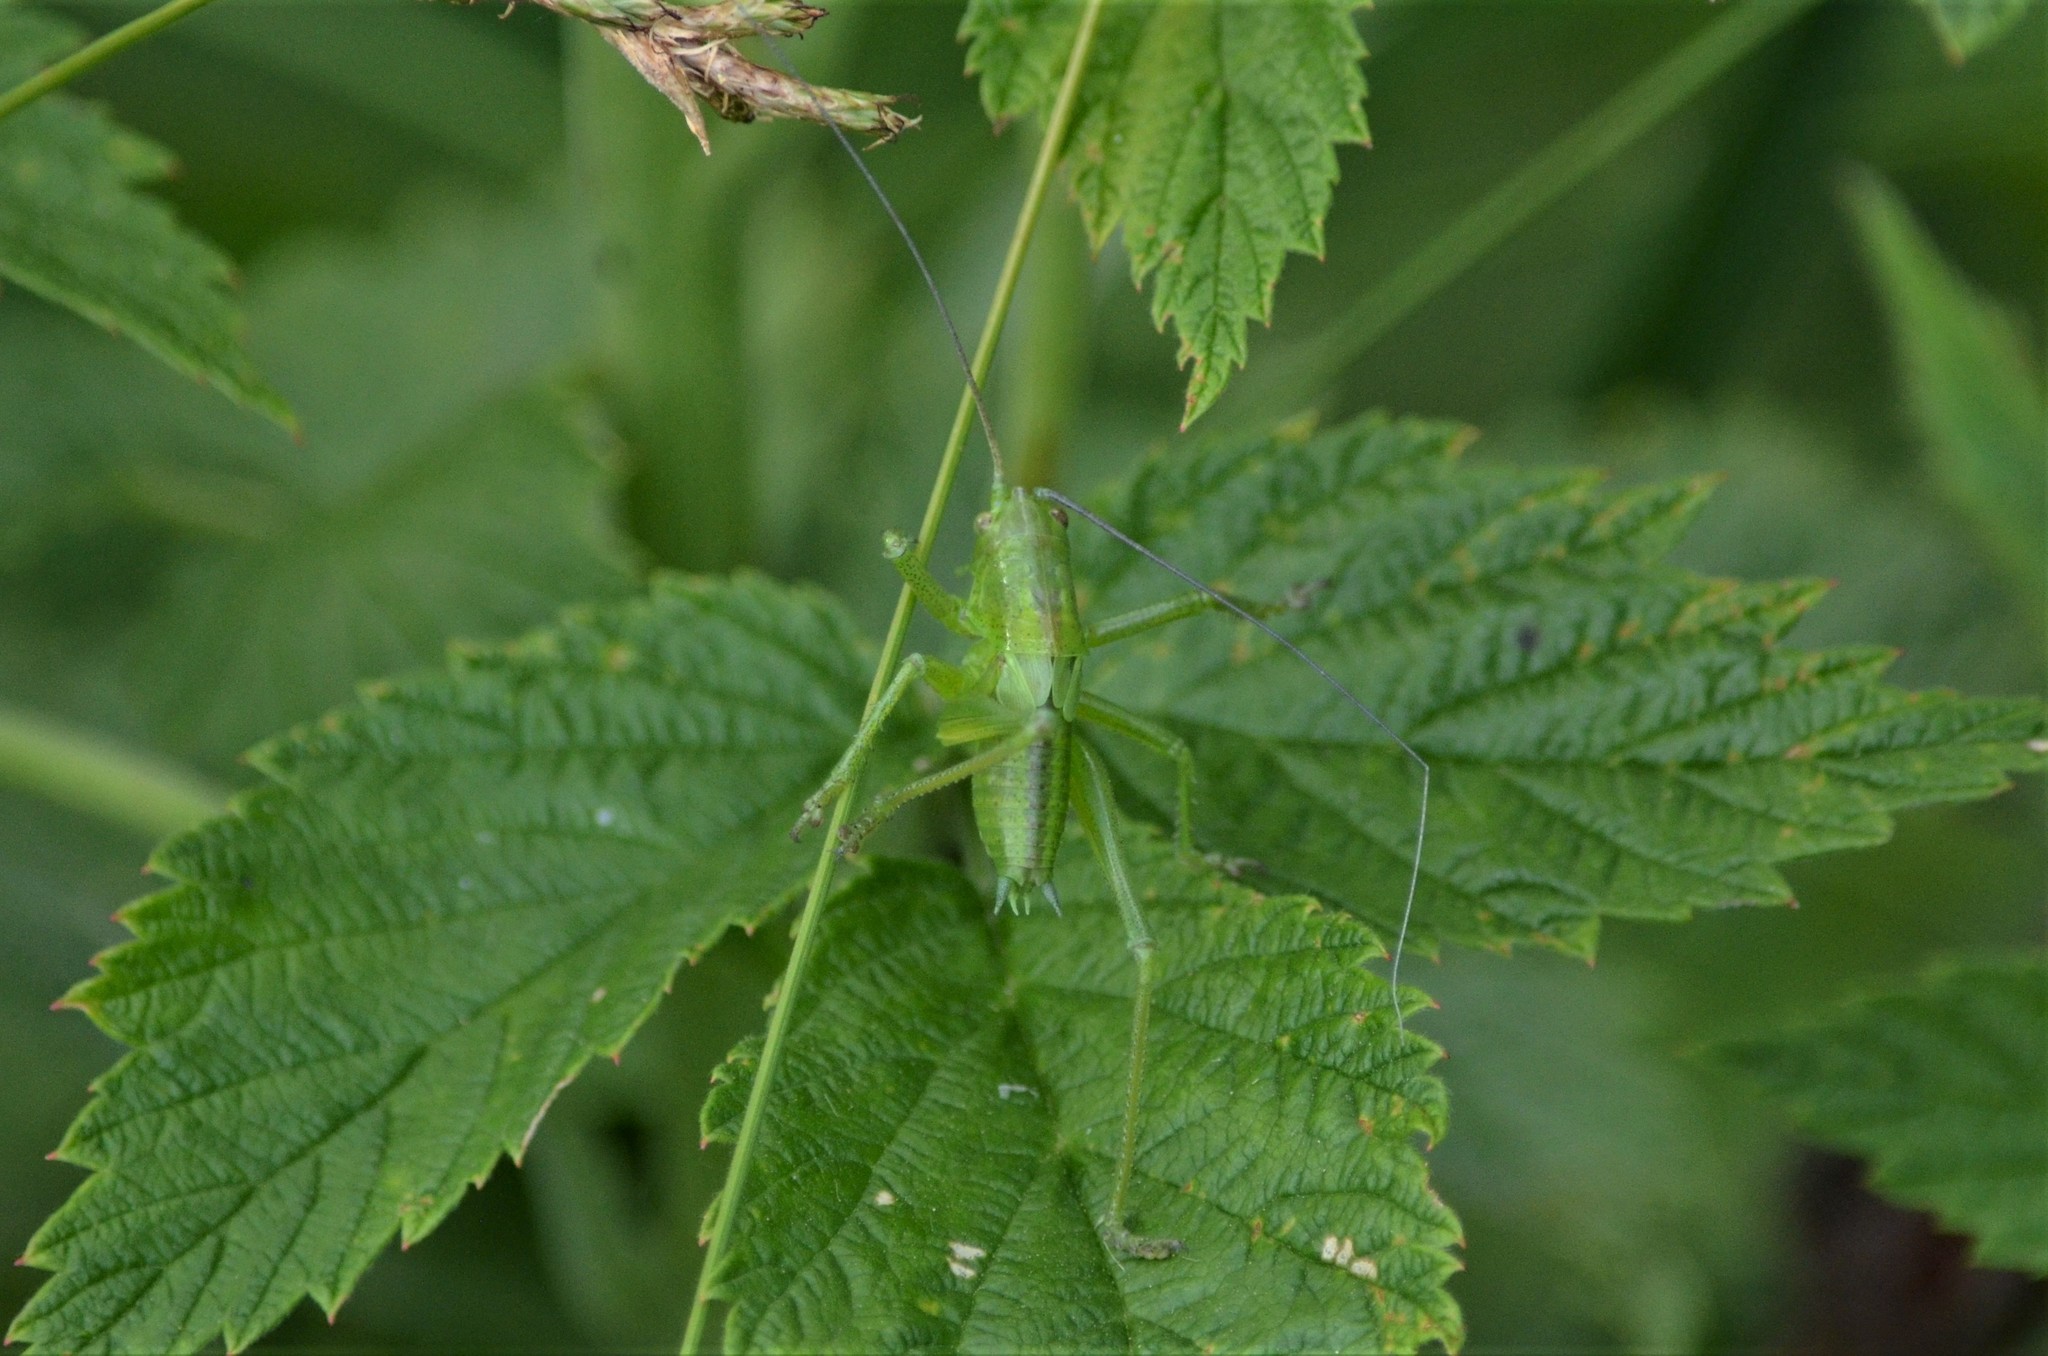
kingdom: Animalia
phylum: Arthropoda
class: Insecta
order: Orthoptera
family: Tettigoniidae
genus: Tettigonia
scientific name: Tettigonia cantans
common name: Upland green bush-cricket
